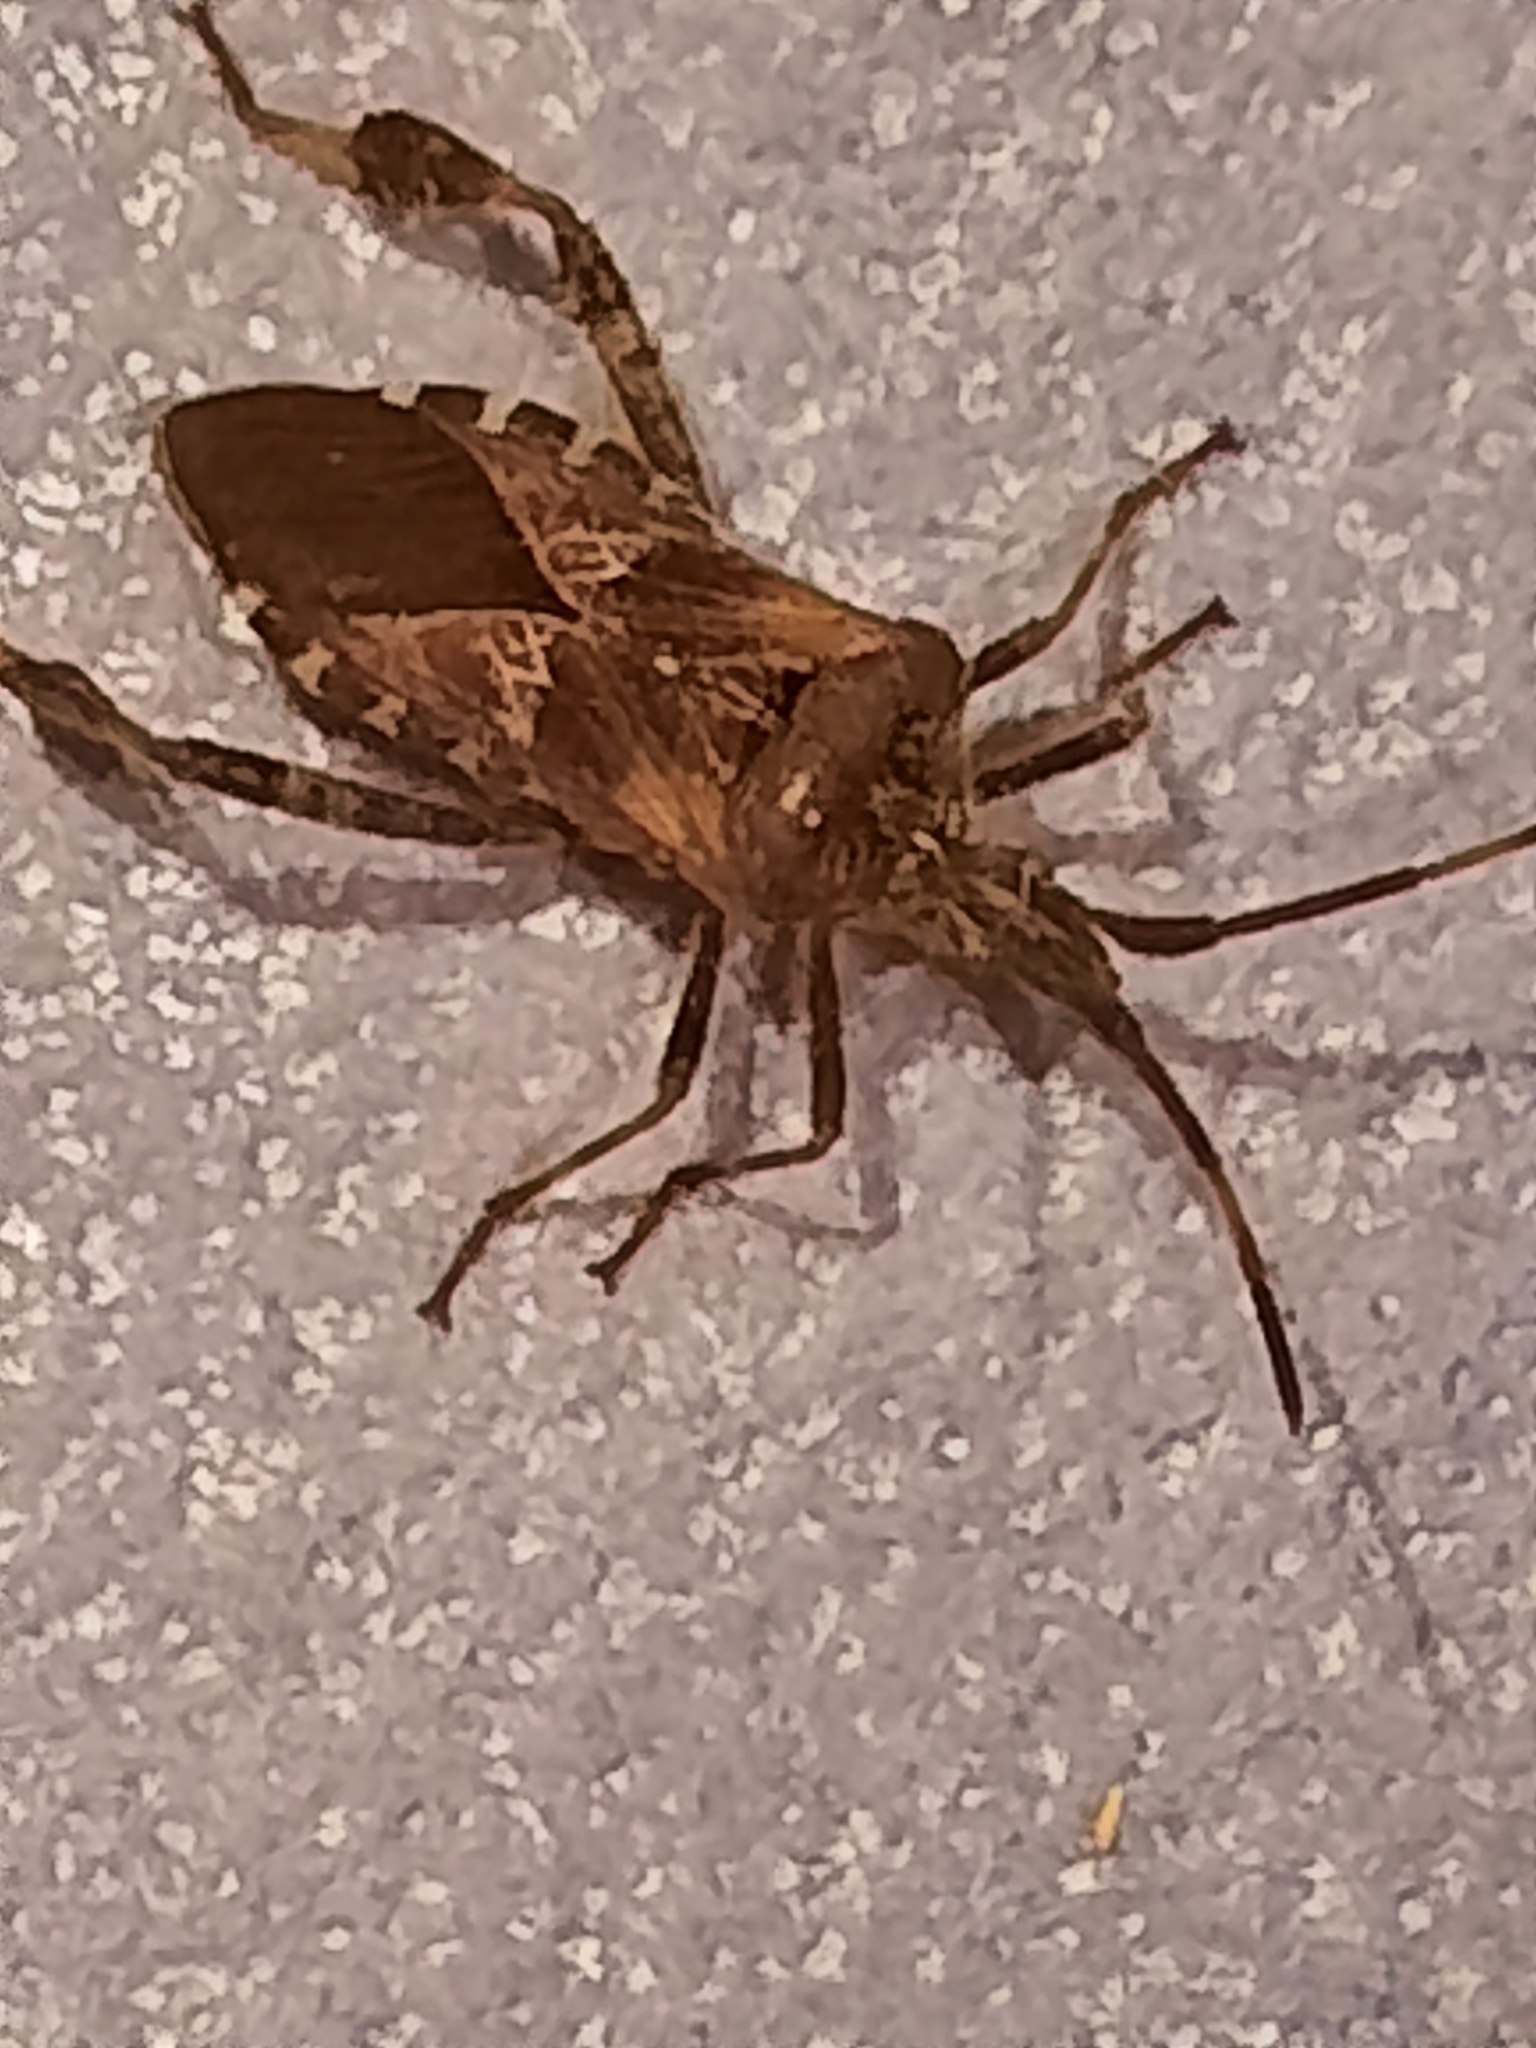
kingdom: Animalia
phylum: Arthropoda
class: Insecta
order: Hemiptera
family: Coreidae
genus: Leptoglossus
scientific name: Leptoglossus occidentalis
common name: Western conifer-seed bug
